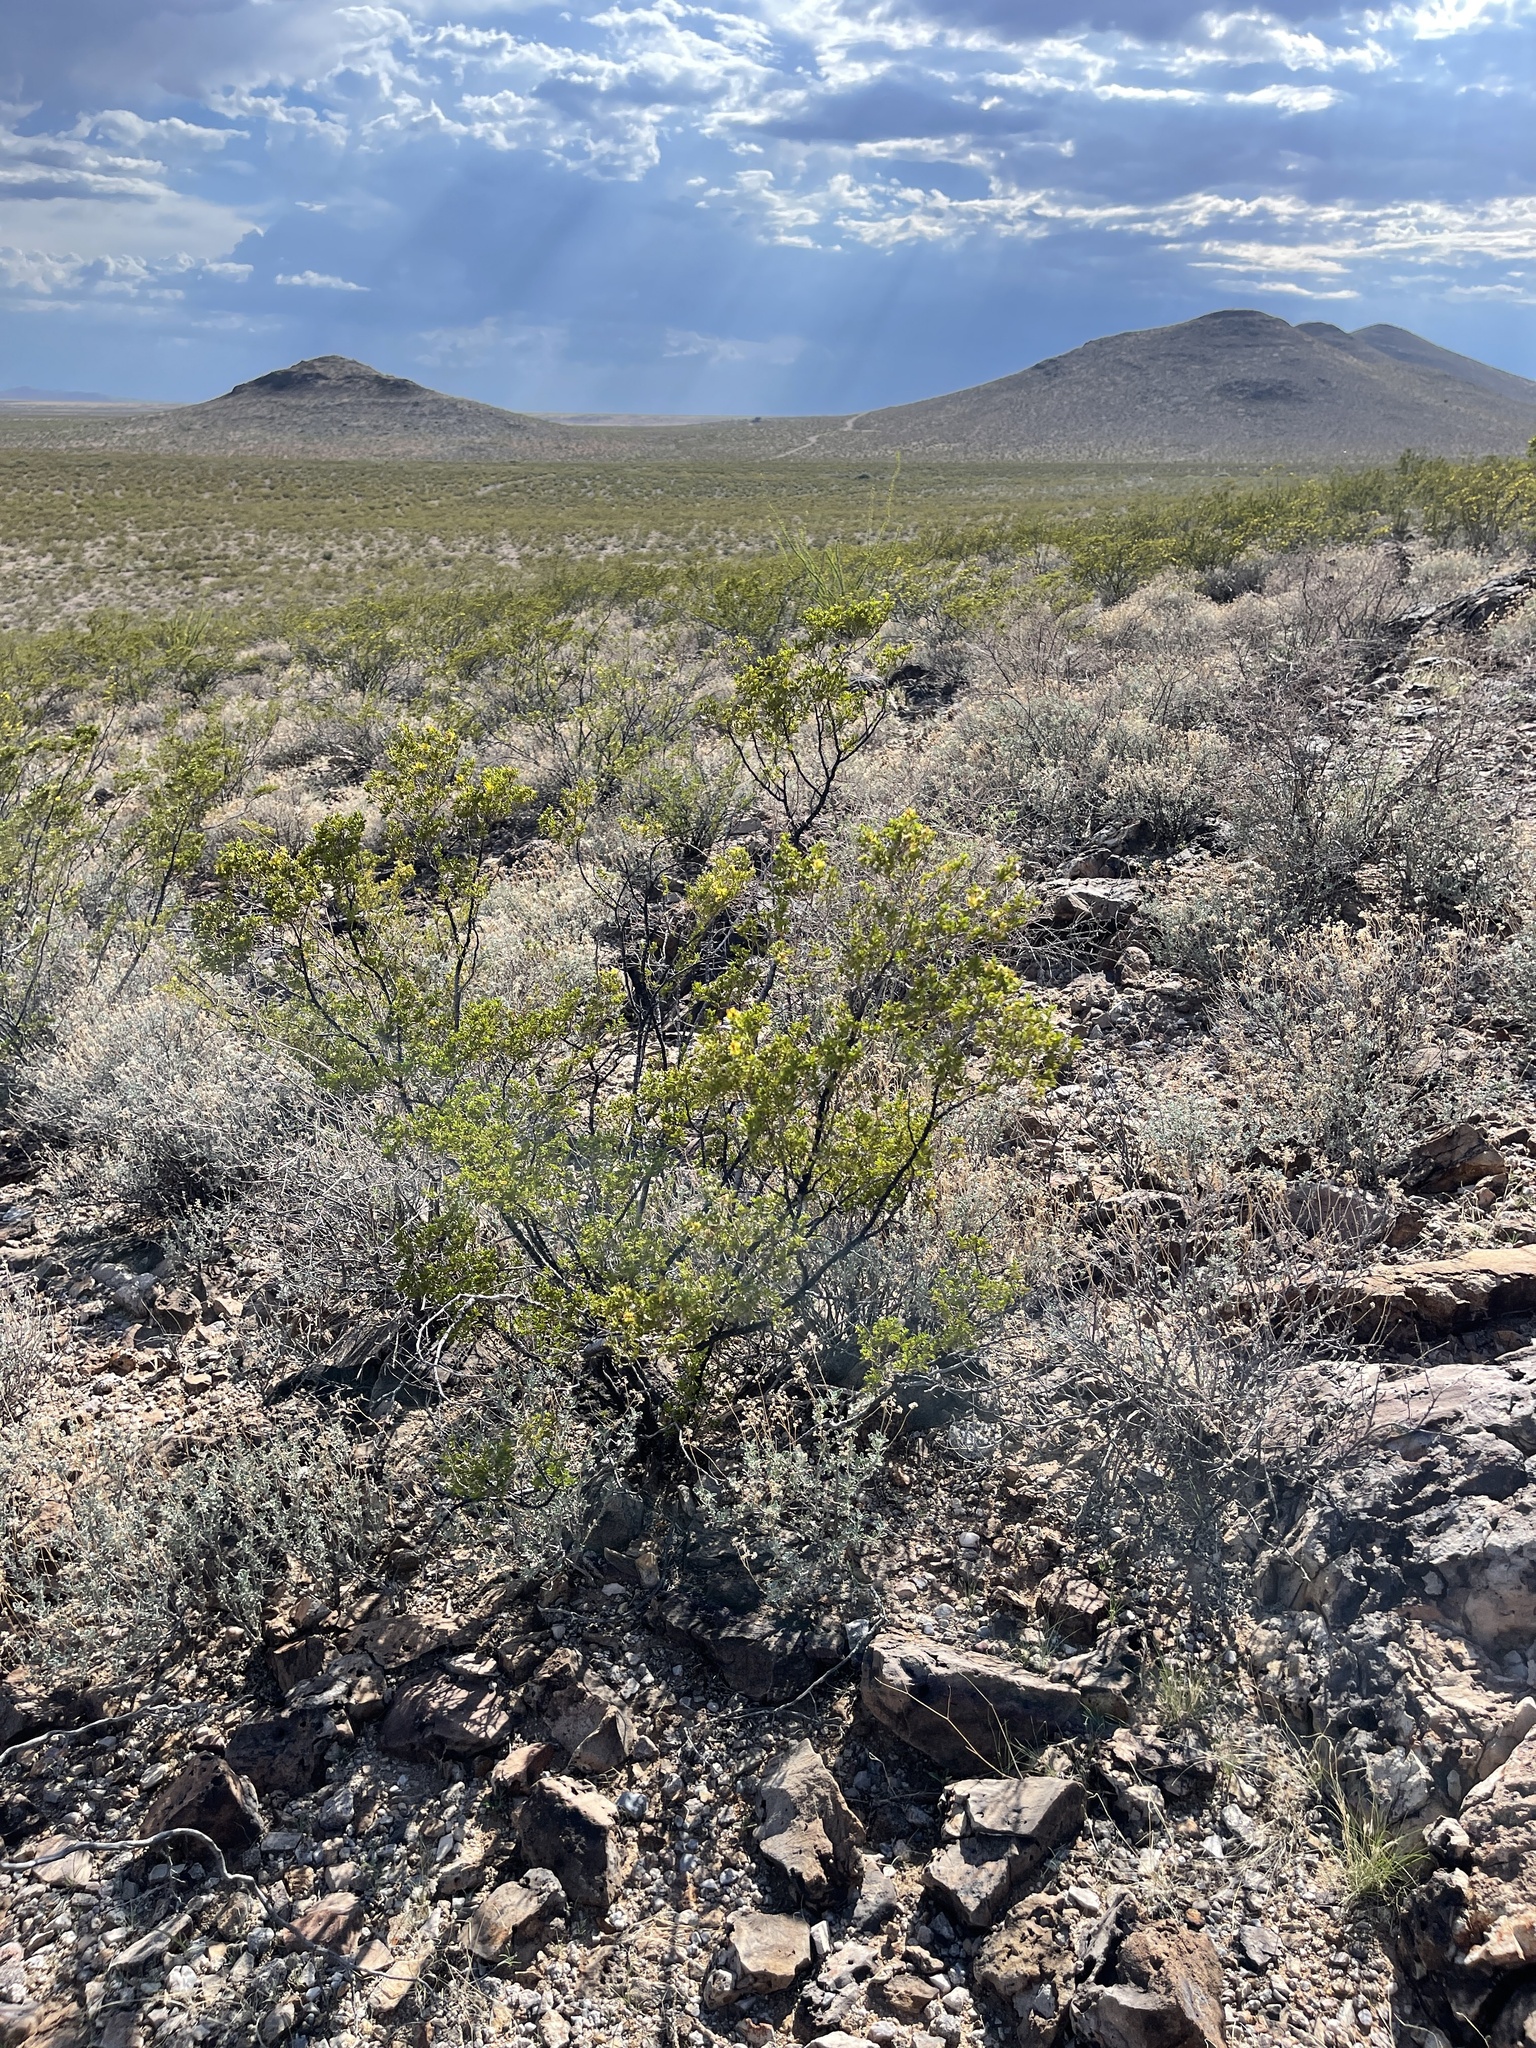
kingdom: Plantae
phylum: Tracheophyta
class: Magnoliopsida
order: Zygophyllales
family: Zygophyllaceae
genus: Larrea
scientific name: Larrea tridentata
